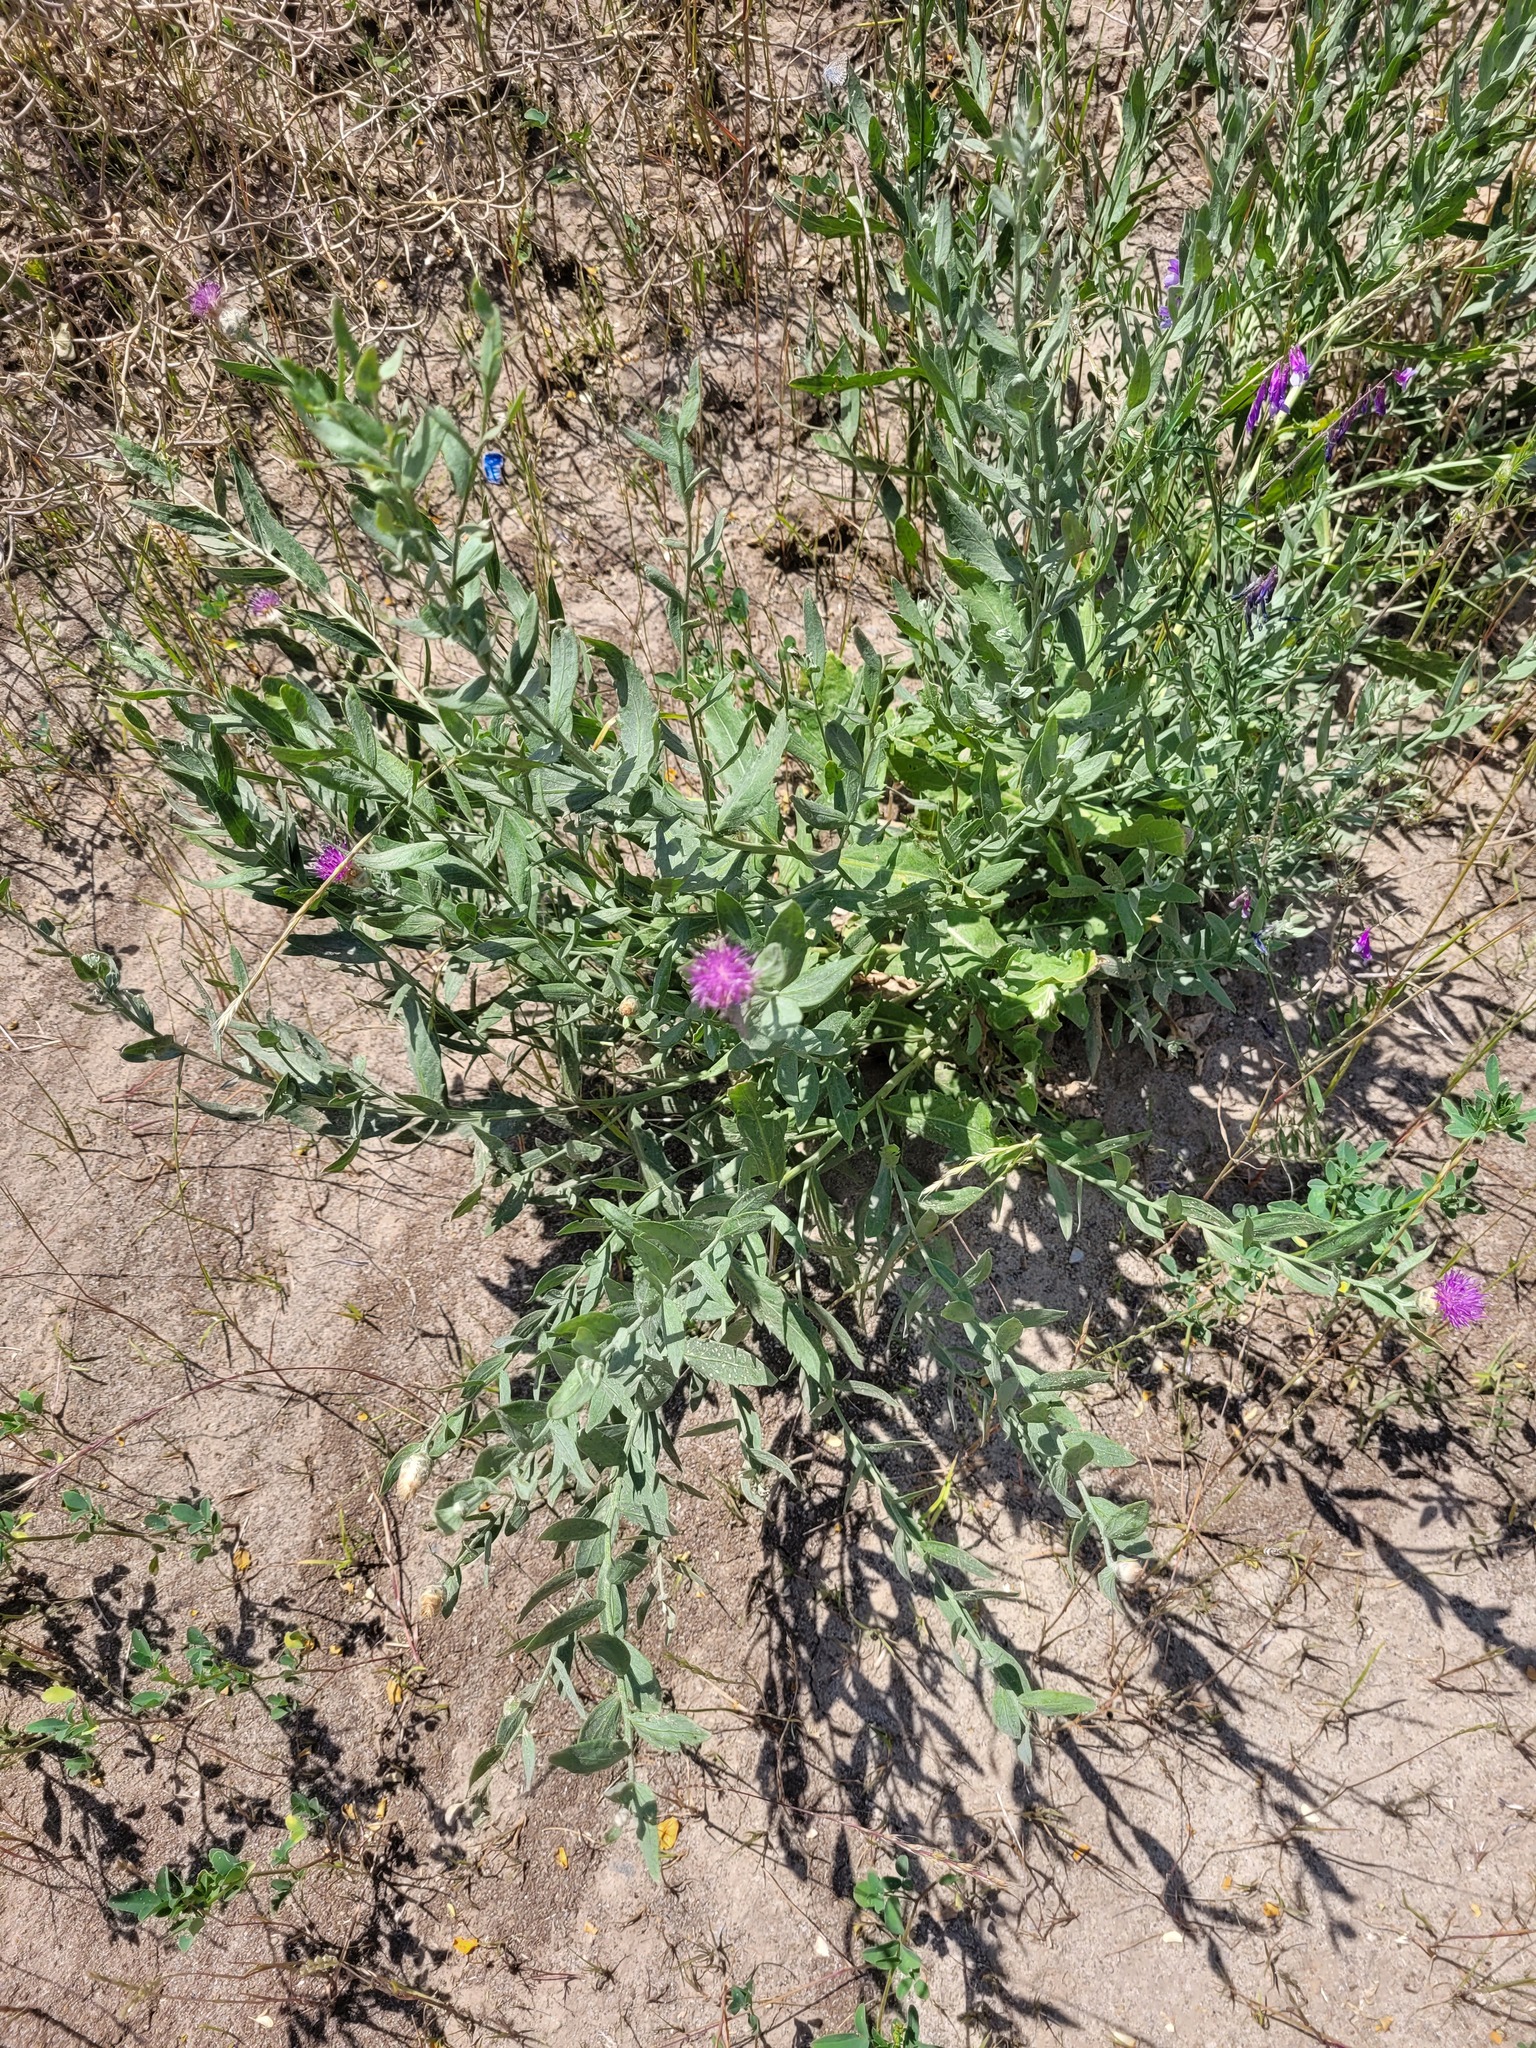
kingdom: Plantae
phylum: Tracheophyta
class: Magnoliopsida
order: Asterales
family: Asteraceae
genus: Leuzea
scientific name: Leuzea repens
